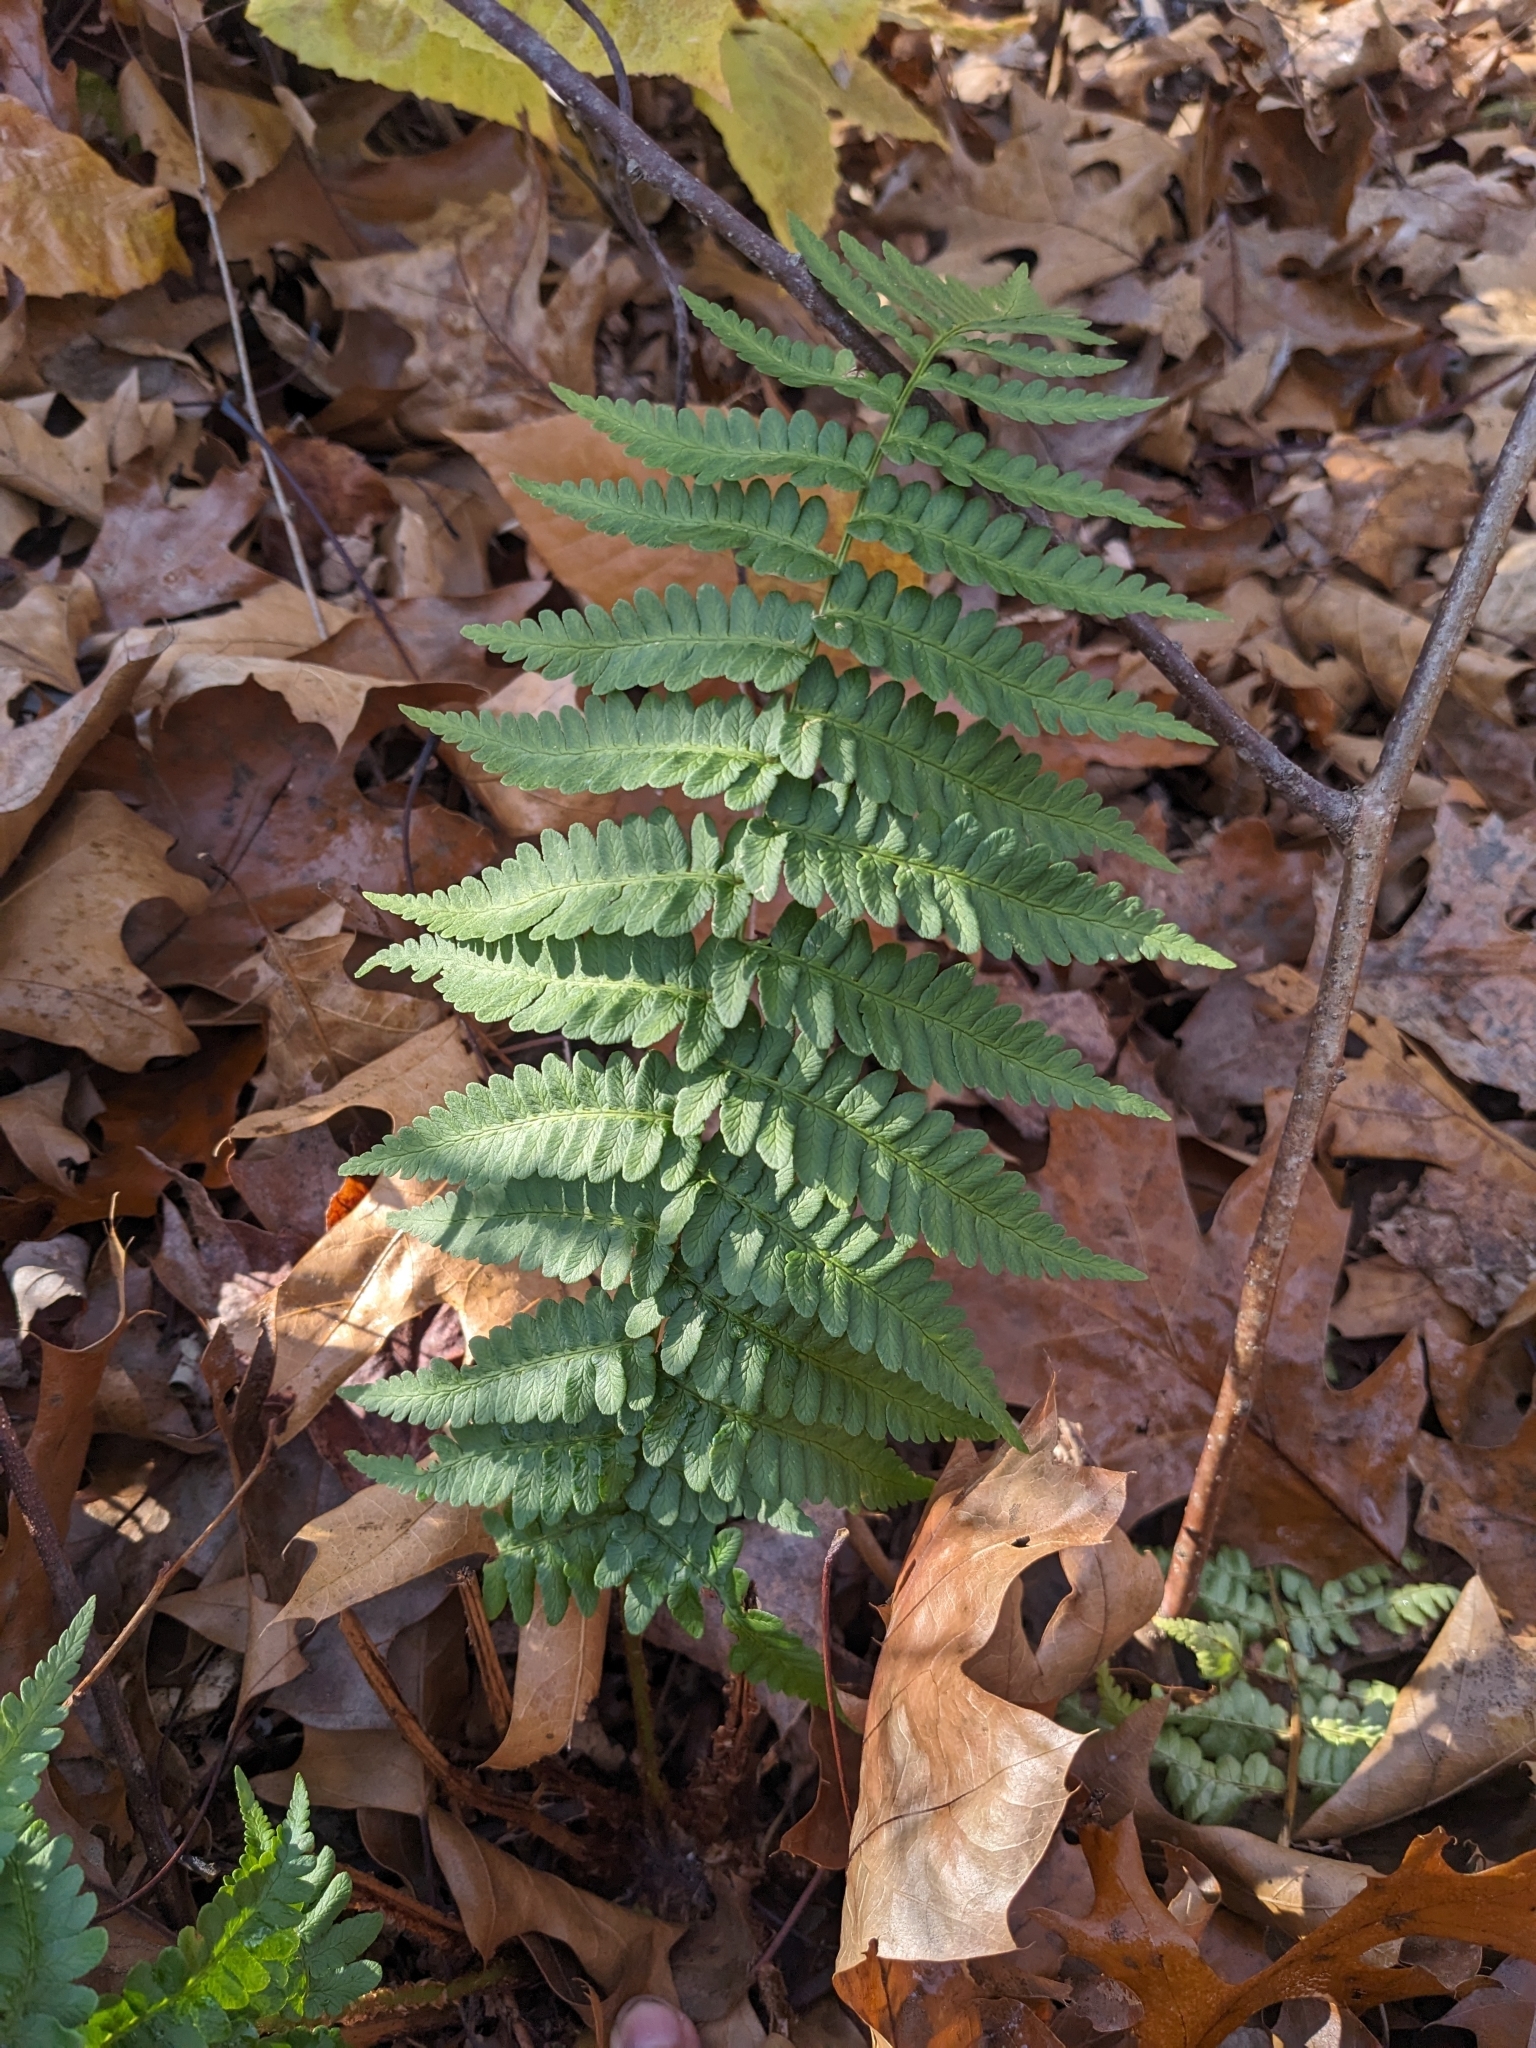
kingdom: Plantae
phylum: Tracheophyta
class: Polypodiopsida
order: Polypodiales
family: Dryopteridaceae
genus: Dryopteris
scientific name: Dryopteris marginalis
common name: Marginal wood fern
